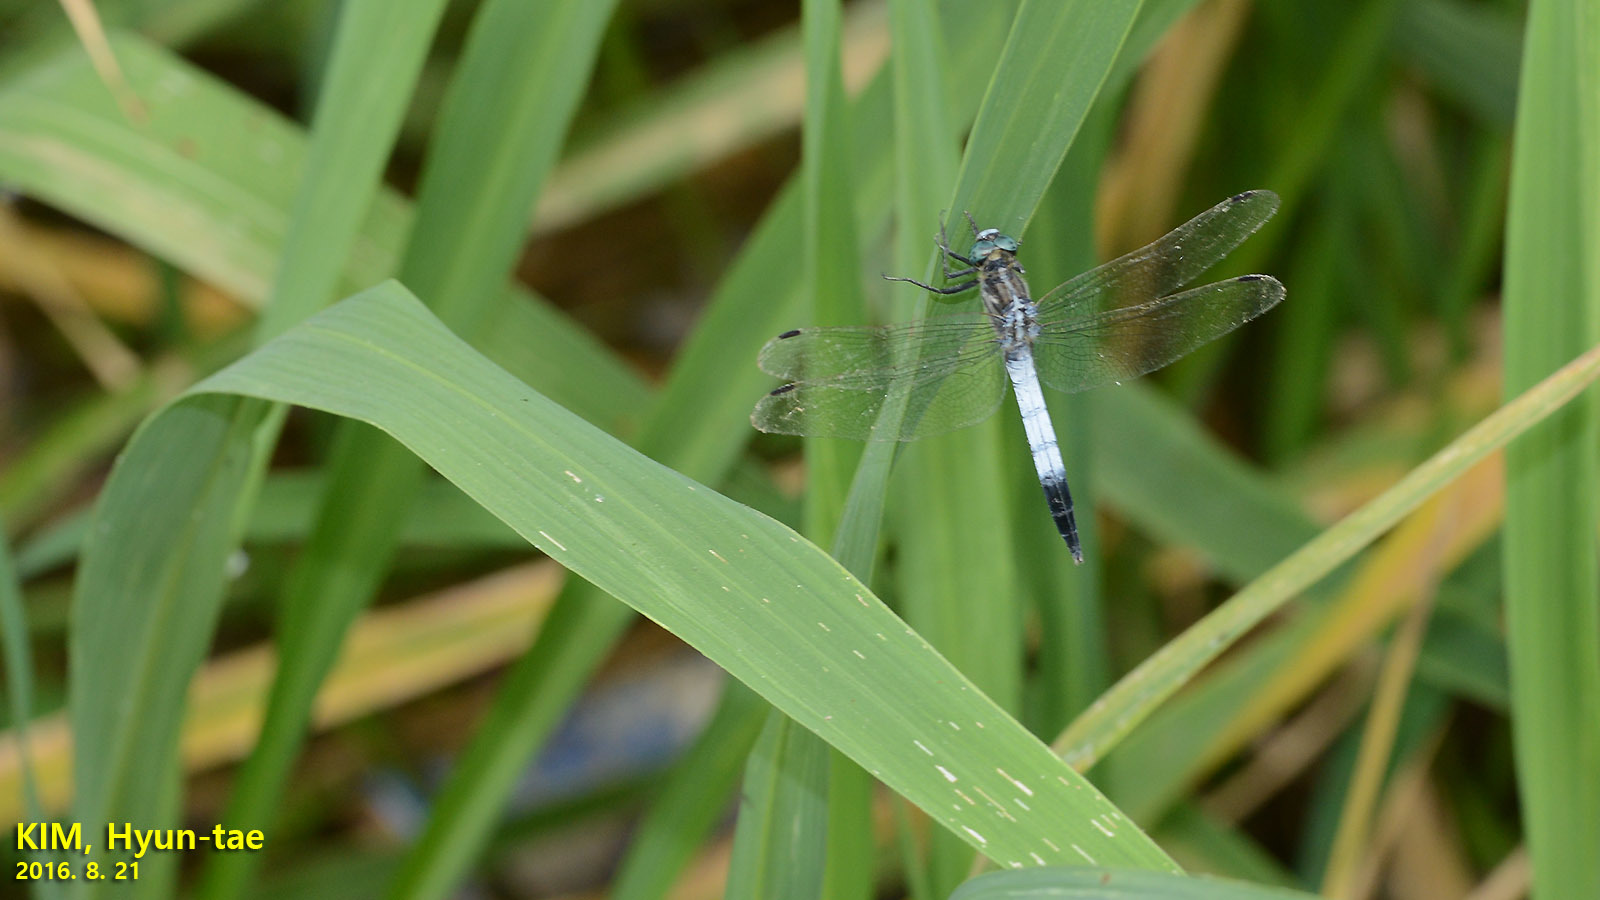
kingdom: Animalia
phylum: Arthropoda
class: Insecta
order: Odonata
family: Libellulidae
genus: Orthetrum
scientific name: Orthetrum albistylum
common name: White-tailed skimmer
